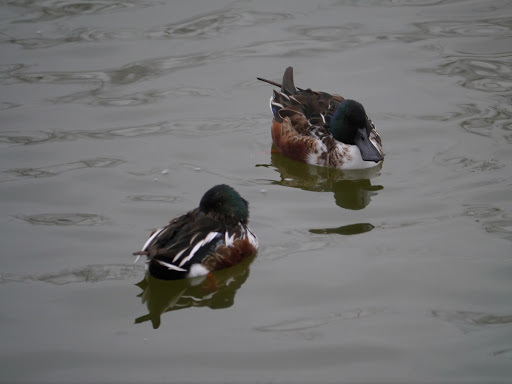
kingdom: Animalia
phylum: Chordata
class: Aves
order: Anseriformes
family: Anatidae
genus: Spatula
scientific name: Spatula clypeata
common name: Northern shoveler
